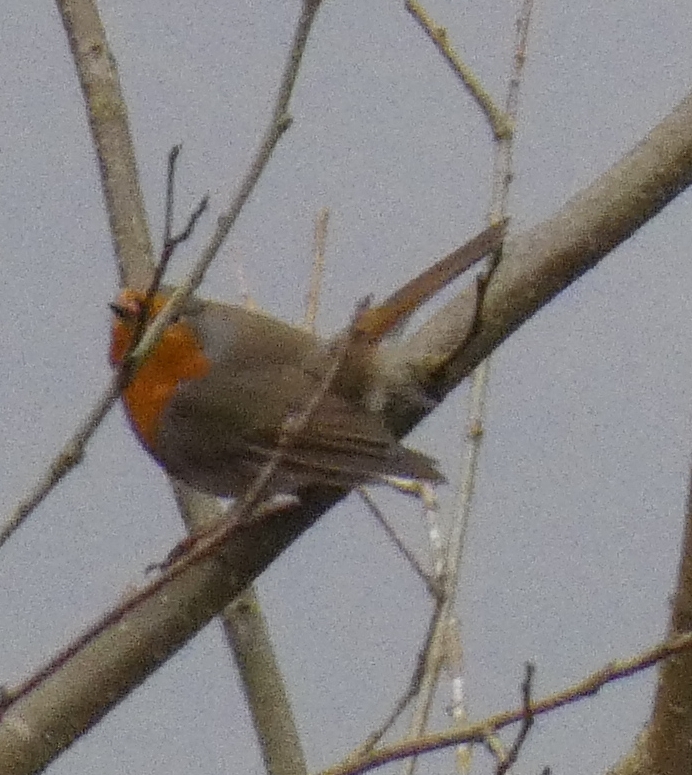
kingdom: Animalia
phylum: Chordata
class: Aves
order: Passeriformes
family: Muscicapidae
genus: Erithacus
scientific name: Erithacus rubecula
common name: European robin
